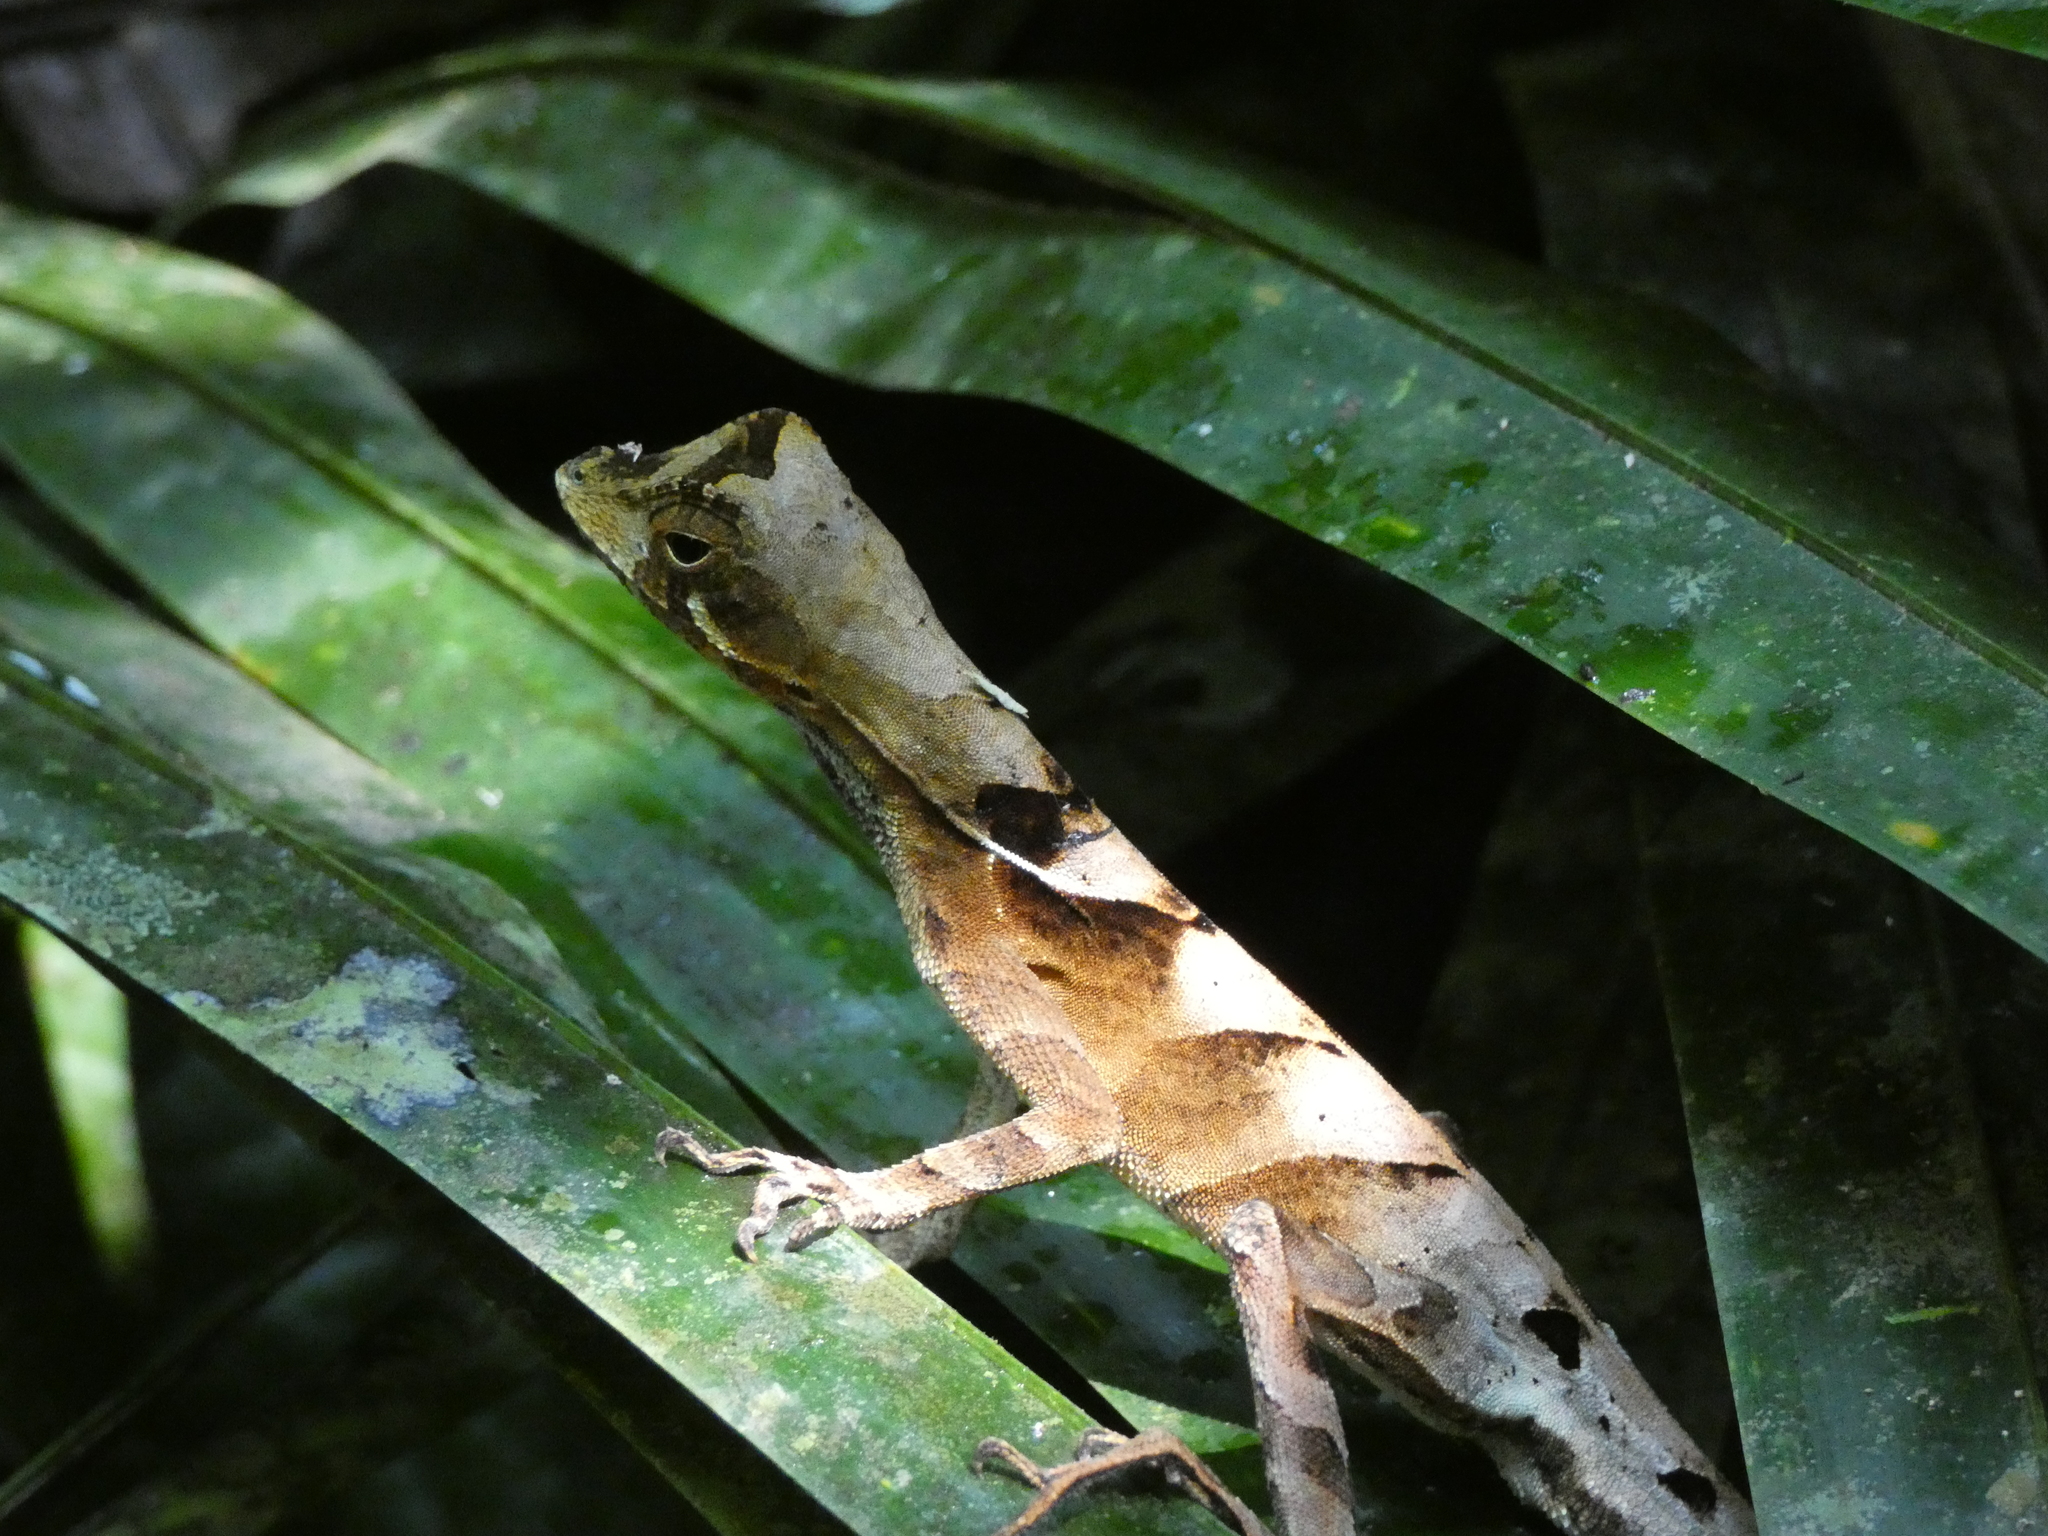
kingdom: Animalia
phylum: Chordata
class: Squamata
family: Dactyloidae
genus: Anolis
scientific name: Anolis scypheus
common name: Yellow-tongued anole
